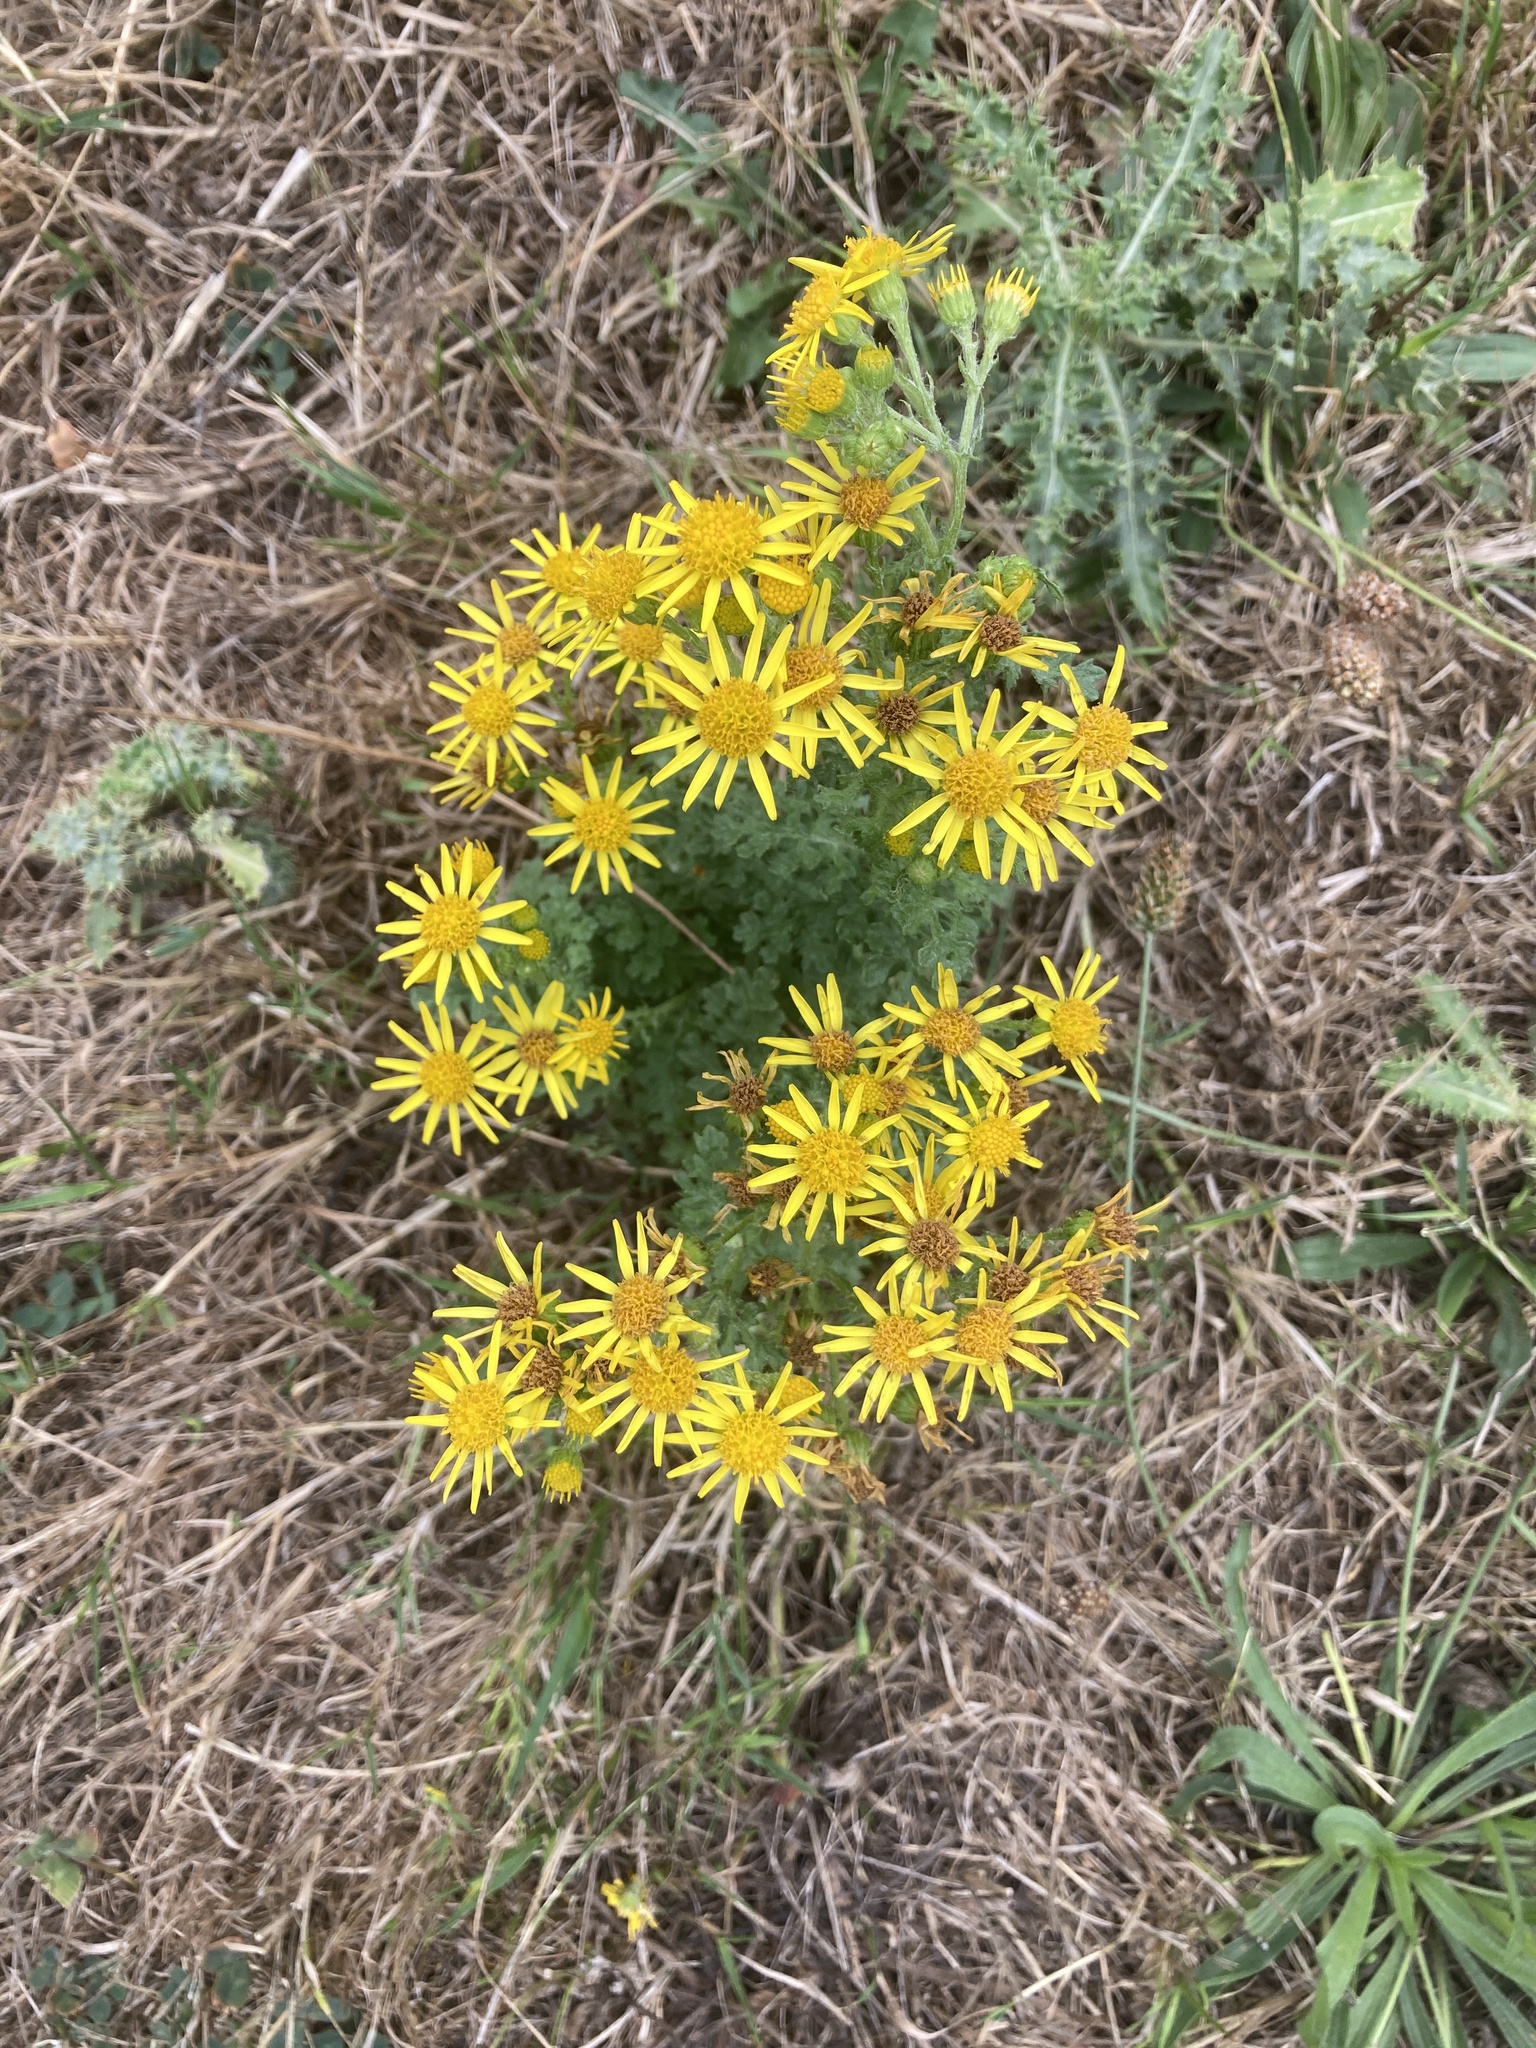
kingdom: Plantae
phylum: Tracheophyta
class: Magnoliopsida
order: Asterales
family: Asteraceae
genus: Jacobaea
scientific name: Jacobaea vulgaris
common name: Stinking willie
